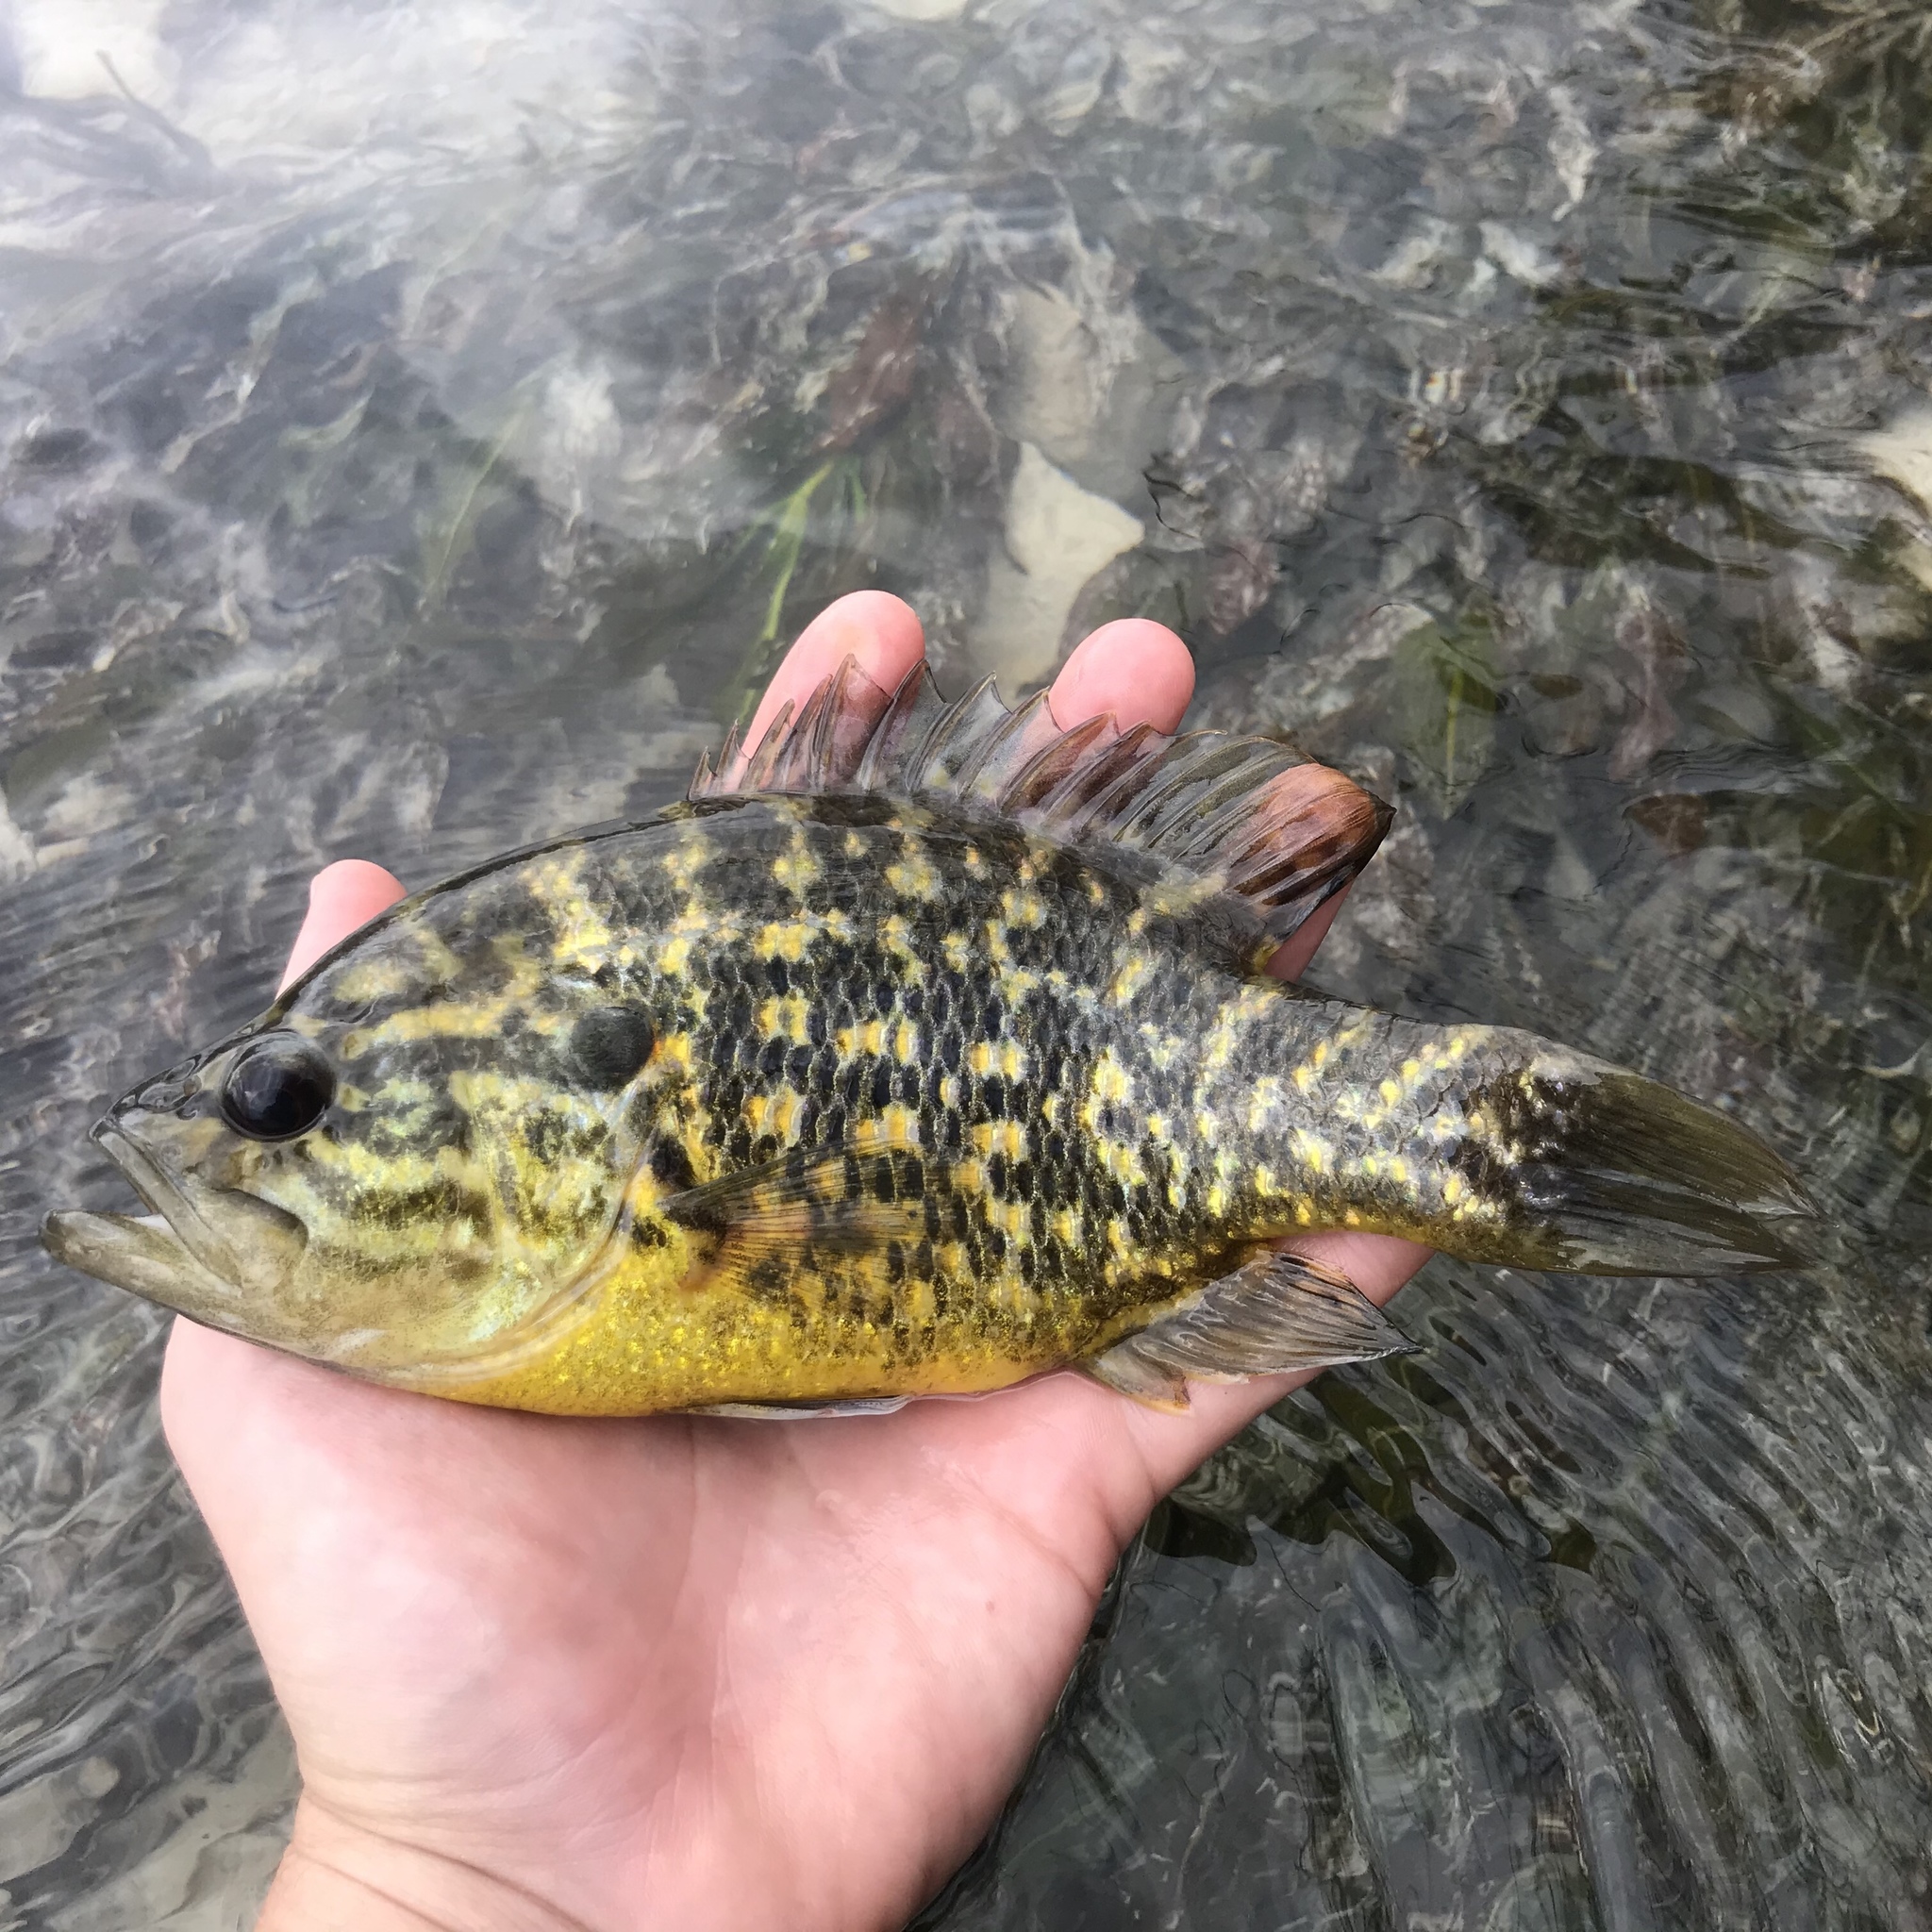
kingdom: Animalia
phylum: Chordata
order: Perciformes
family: Centrarchidae
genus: Lepomis
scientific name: Lepomis gulosus
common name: Warmouth
